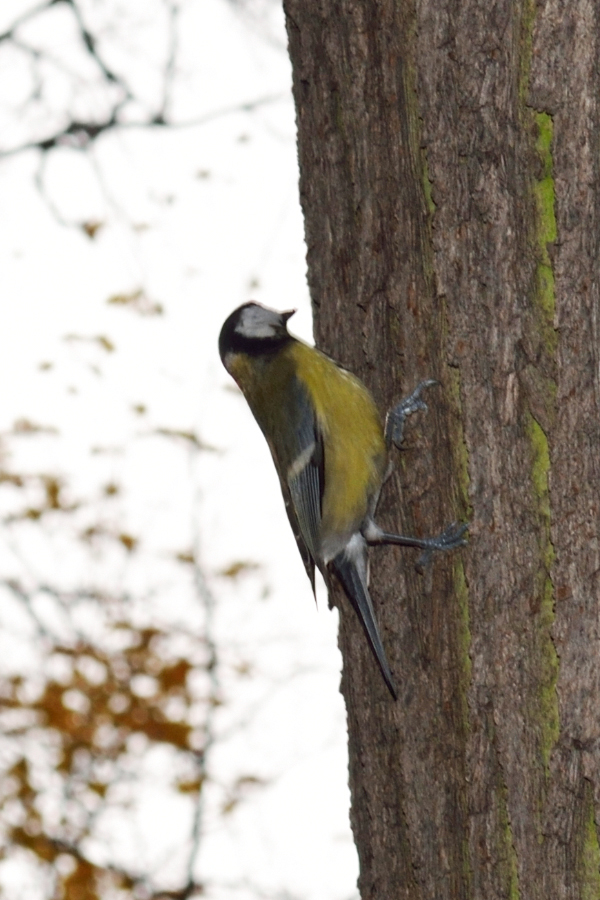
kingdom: Animalia
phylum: Chordata
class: Aves
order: Passeriformes
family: Paridae
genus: Parus
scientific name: Parus major
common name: Great tit
